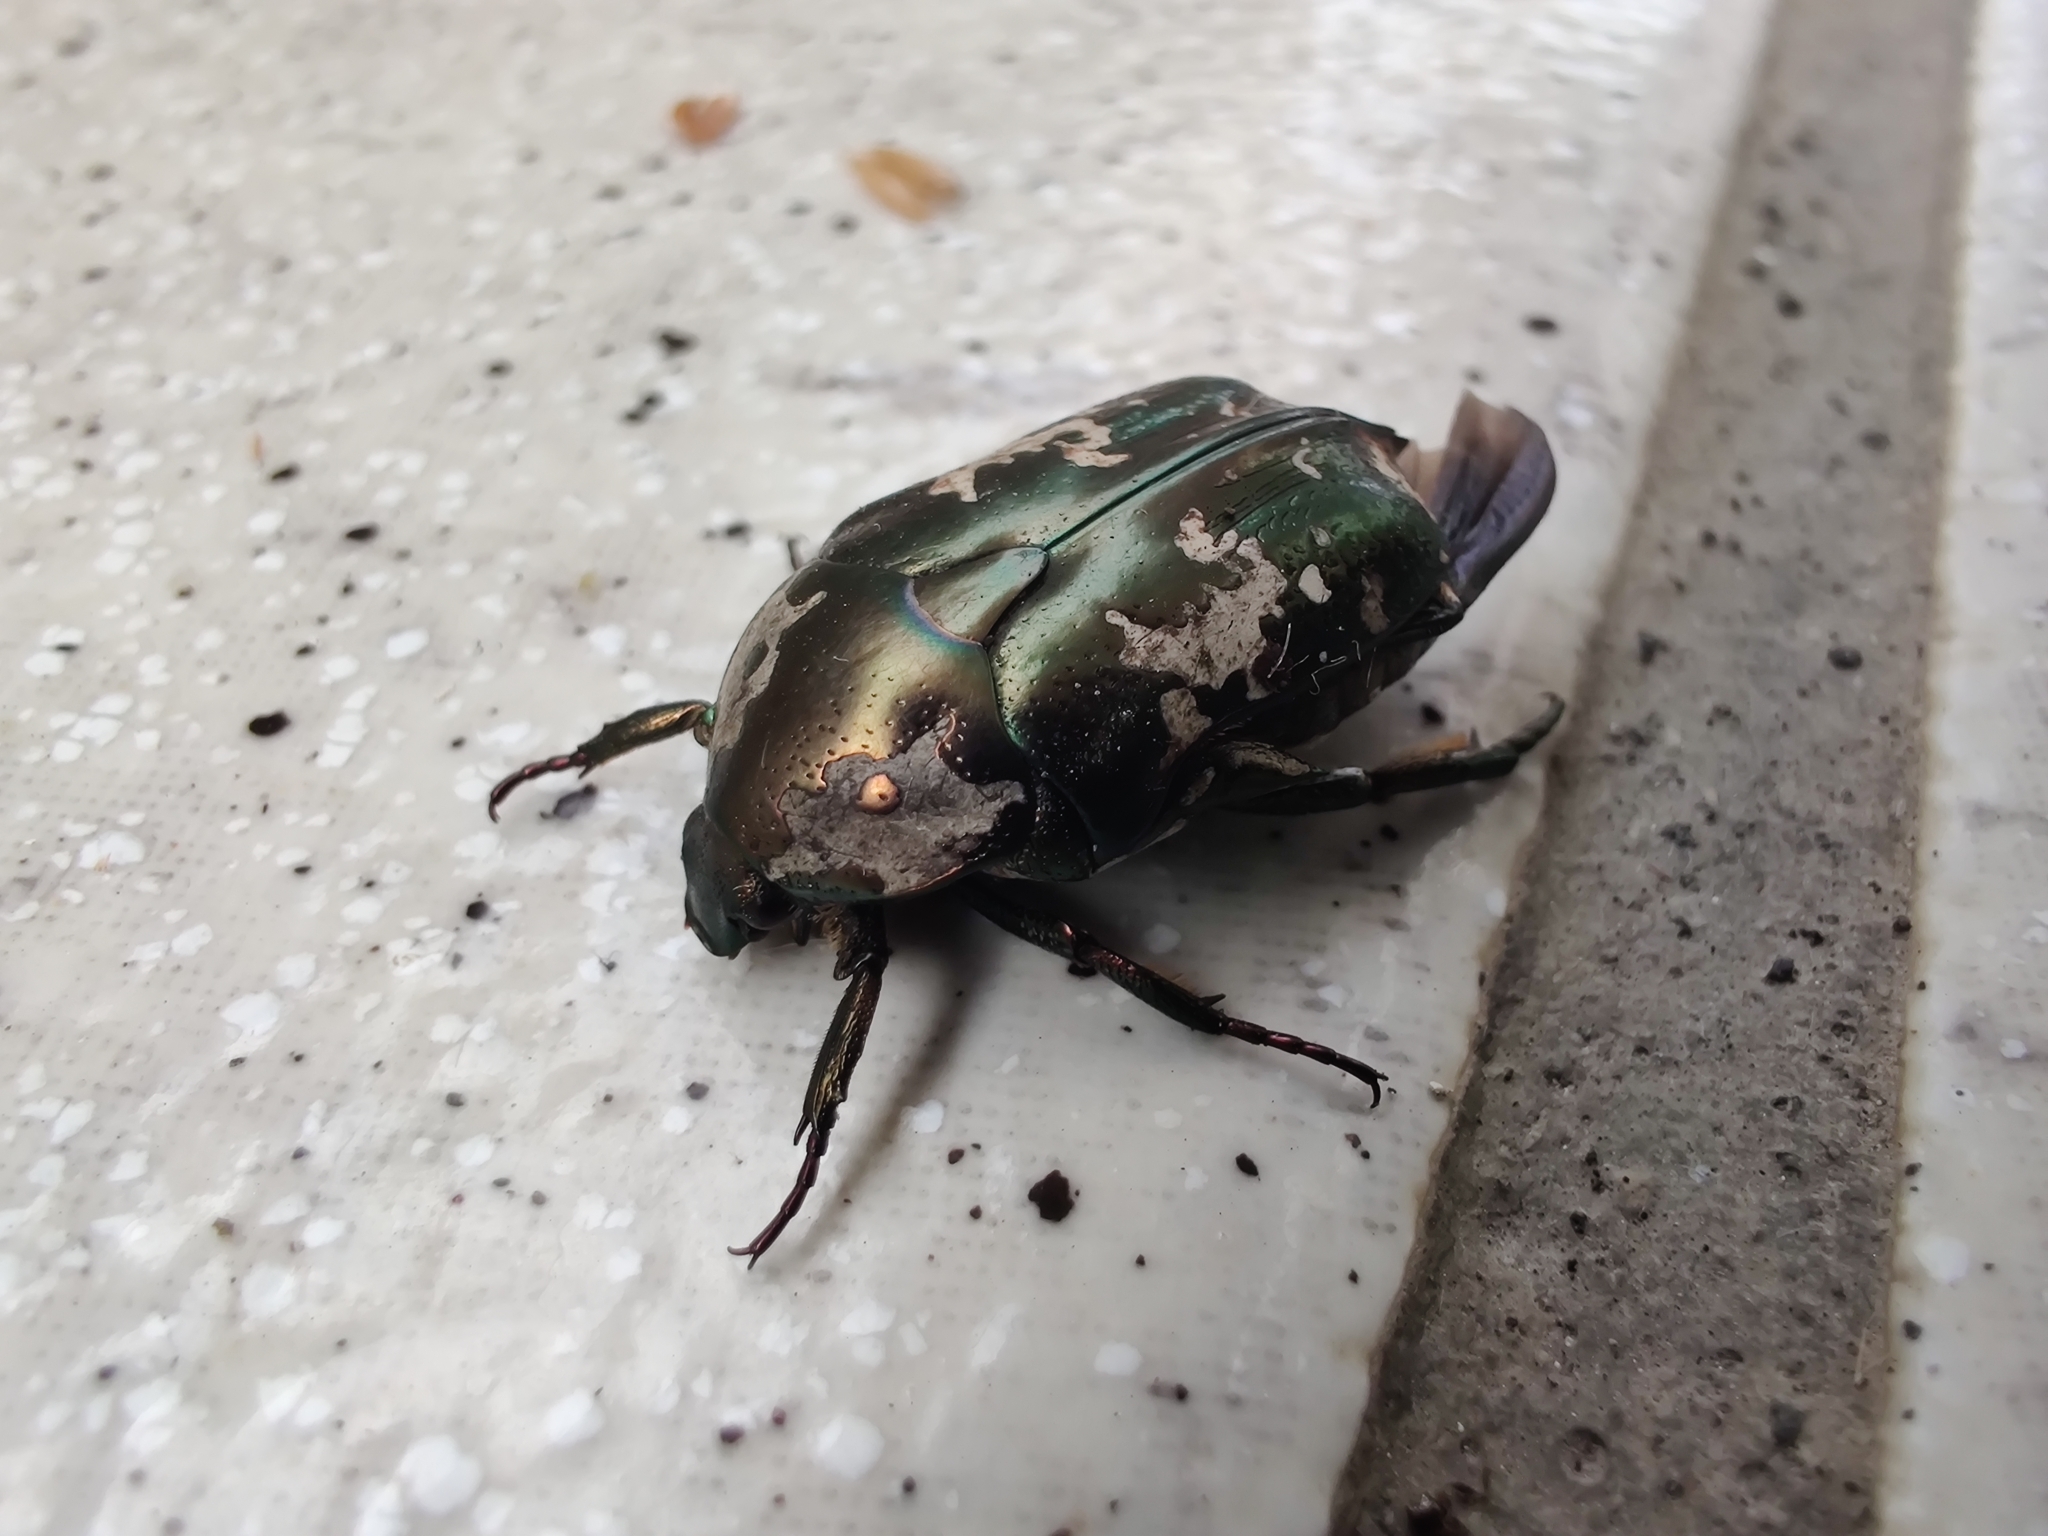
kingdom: Animalia
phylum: Arthropoda
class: Insecta
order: Coleoptera
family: Scarabaeidae
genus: Protaetia
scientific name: Protaetia aurichalcea
